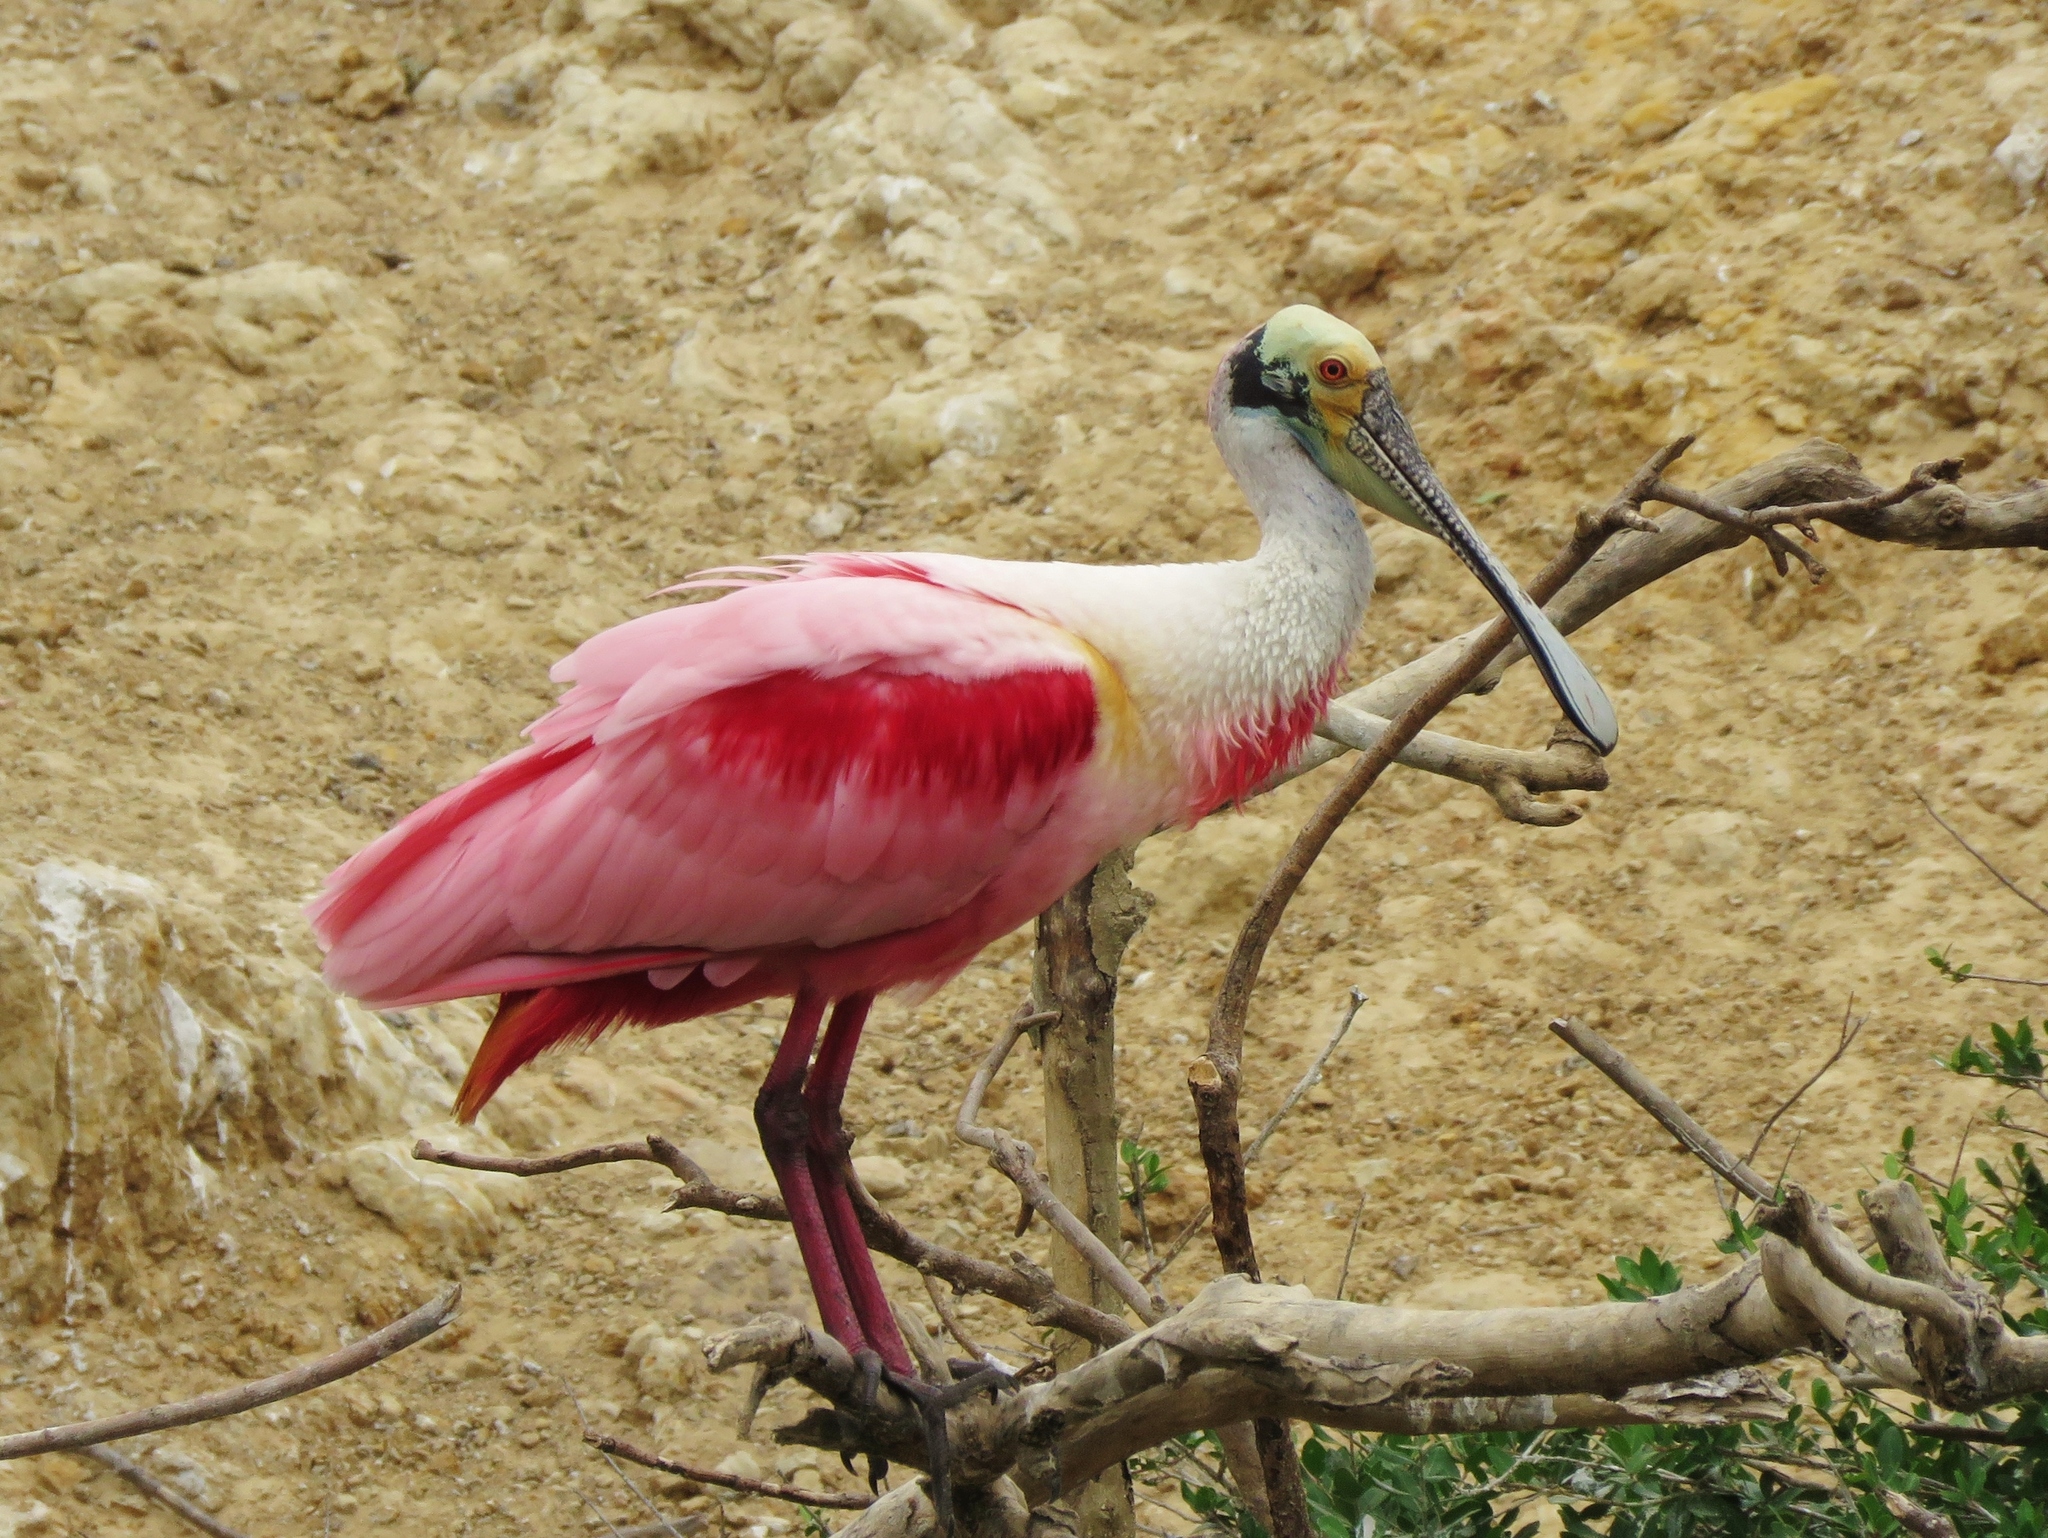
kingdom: Animalia
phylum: Chordata
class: Aves
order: Pelecaniformes
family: Threskiornithidae
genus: Platalea
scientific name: Platalea ajaja
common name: Roseate spoonbill
